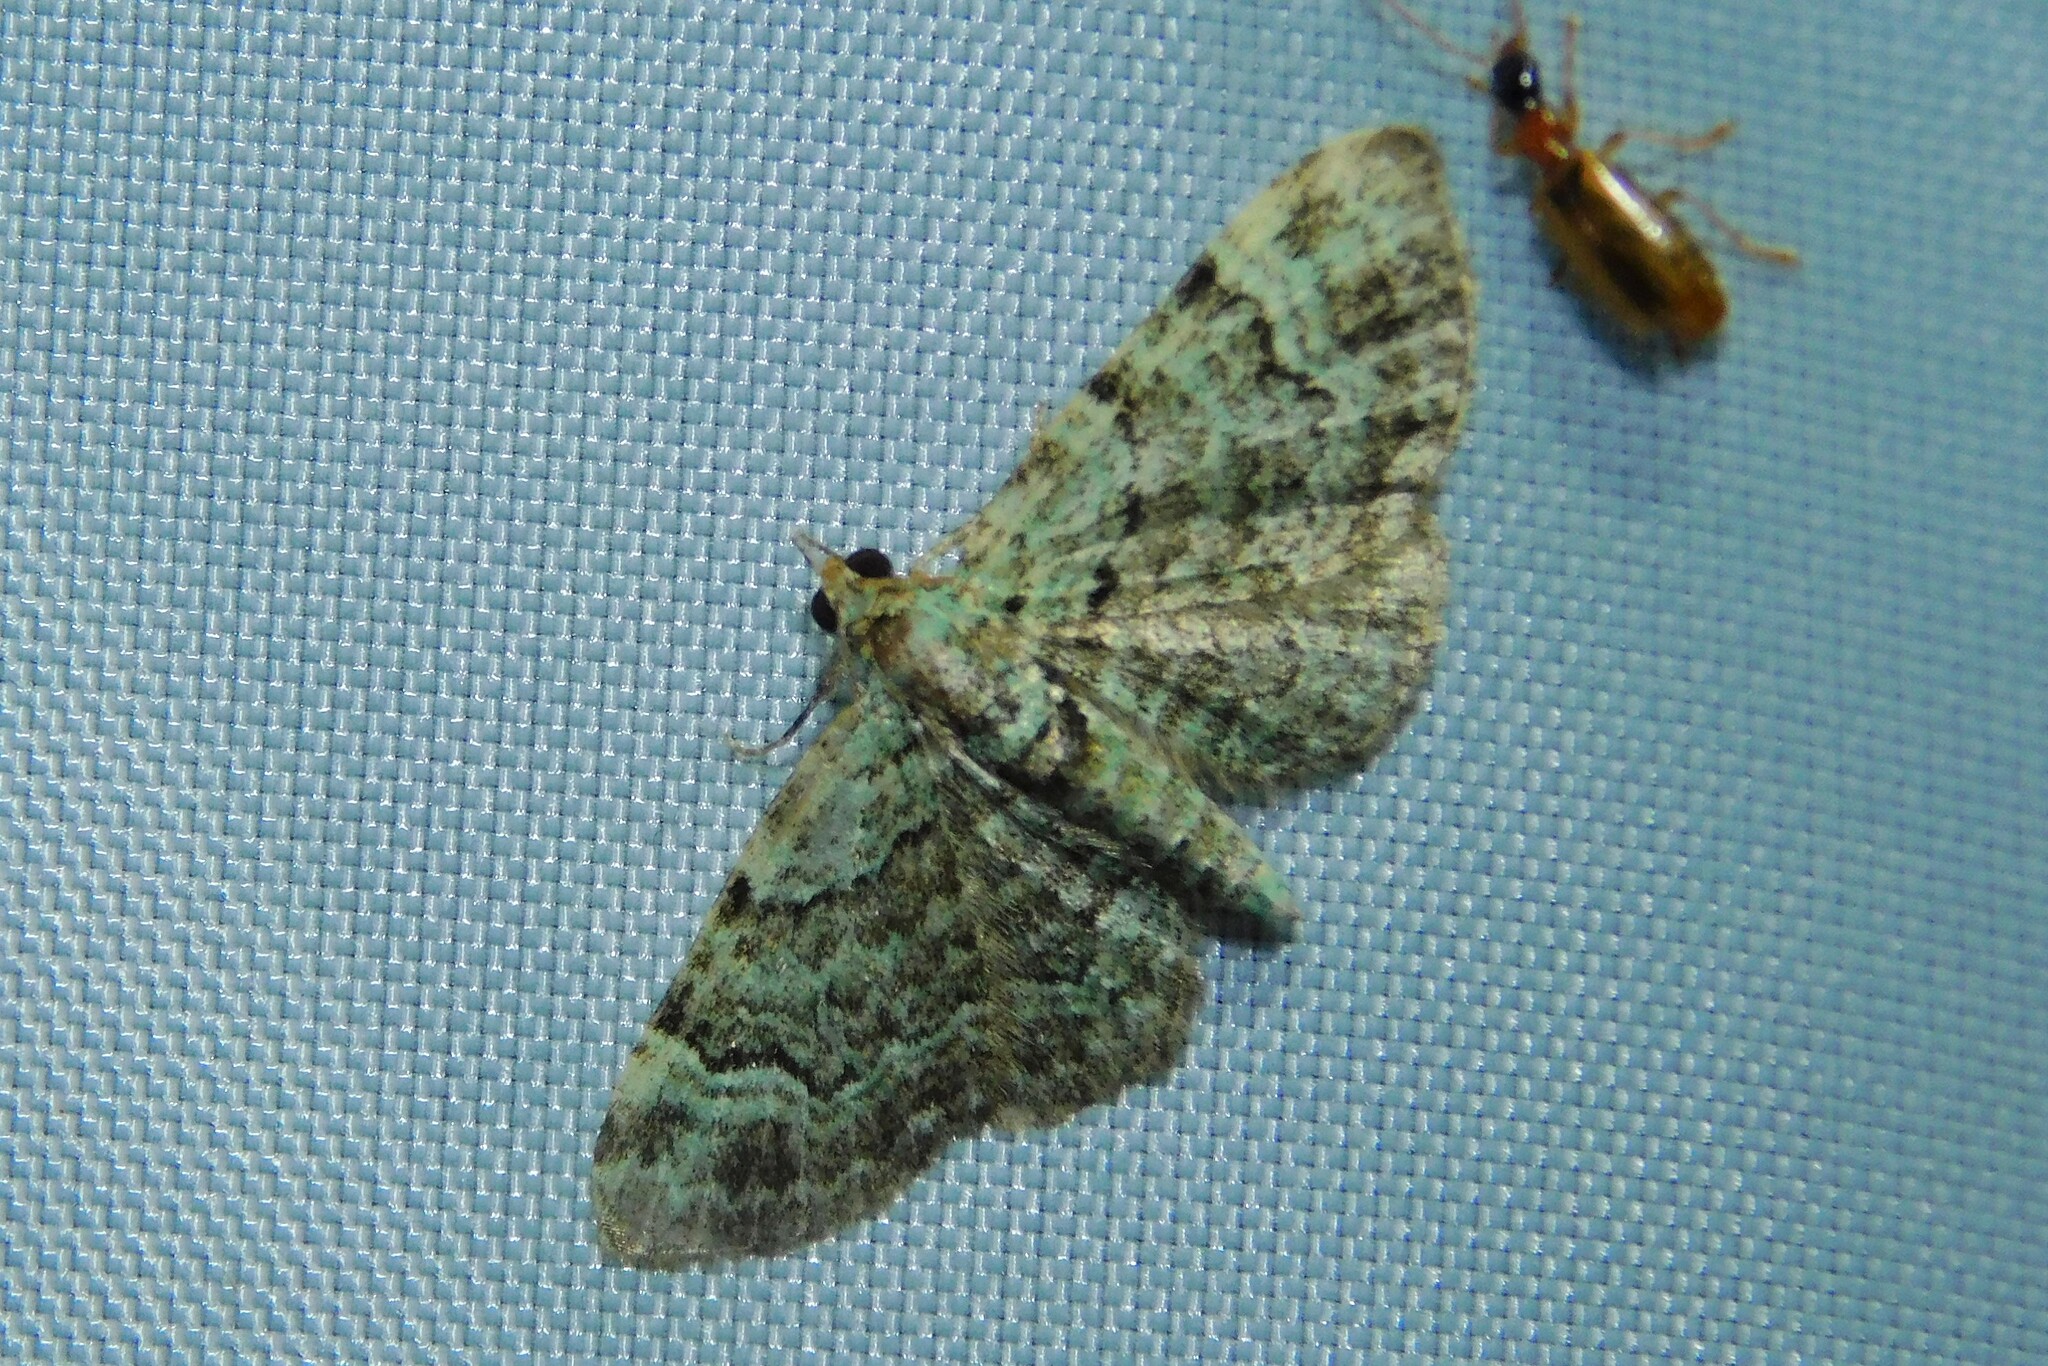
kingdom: Animalia
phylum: Arthropoda
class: Insecta
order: Lepidoptera
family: Geometridae
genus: Pasiphila
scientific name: Pasiphila rectangulata
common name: Green pug
